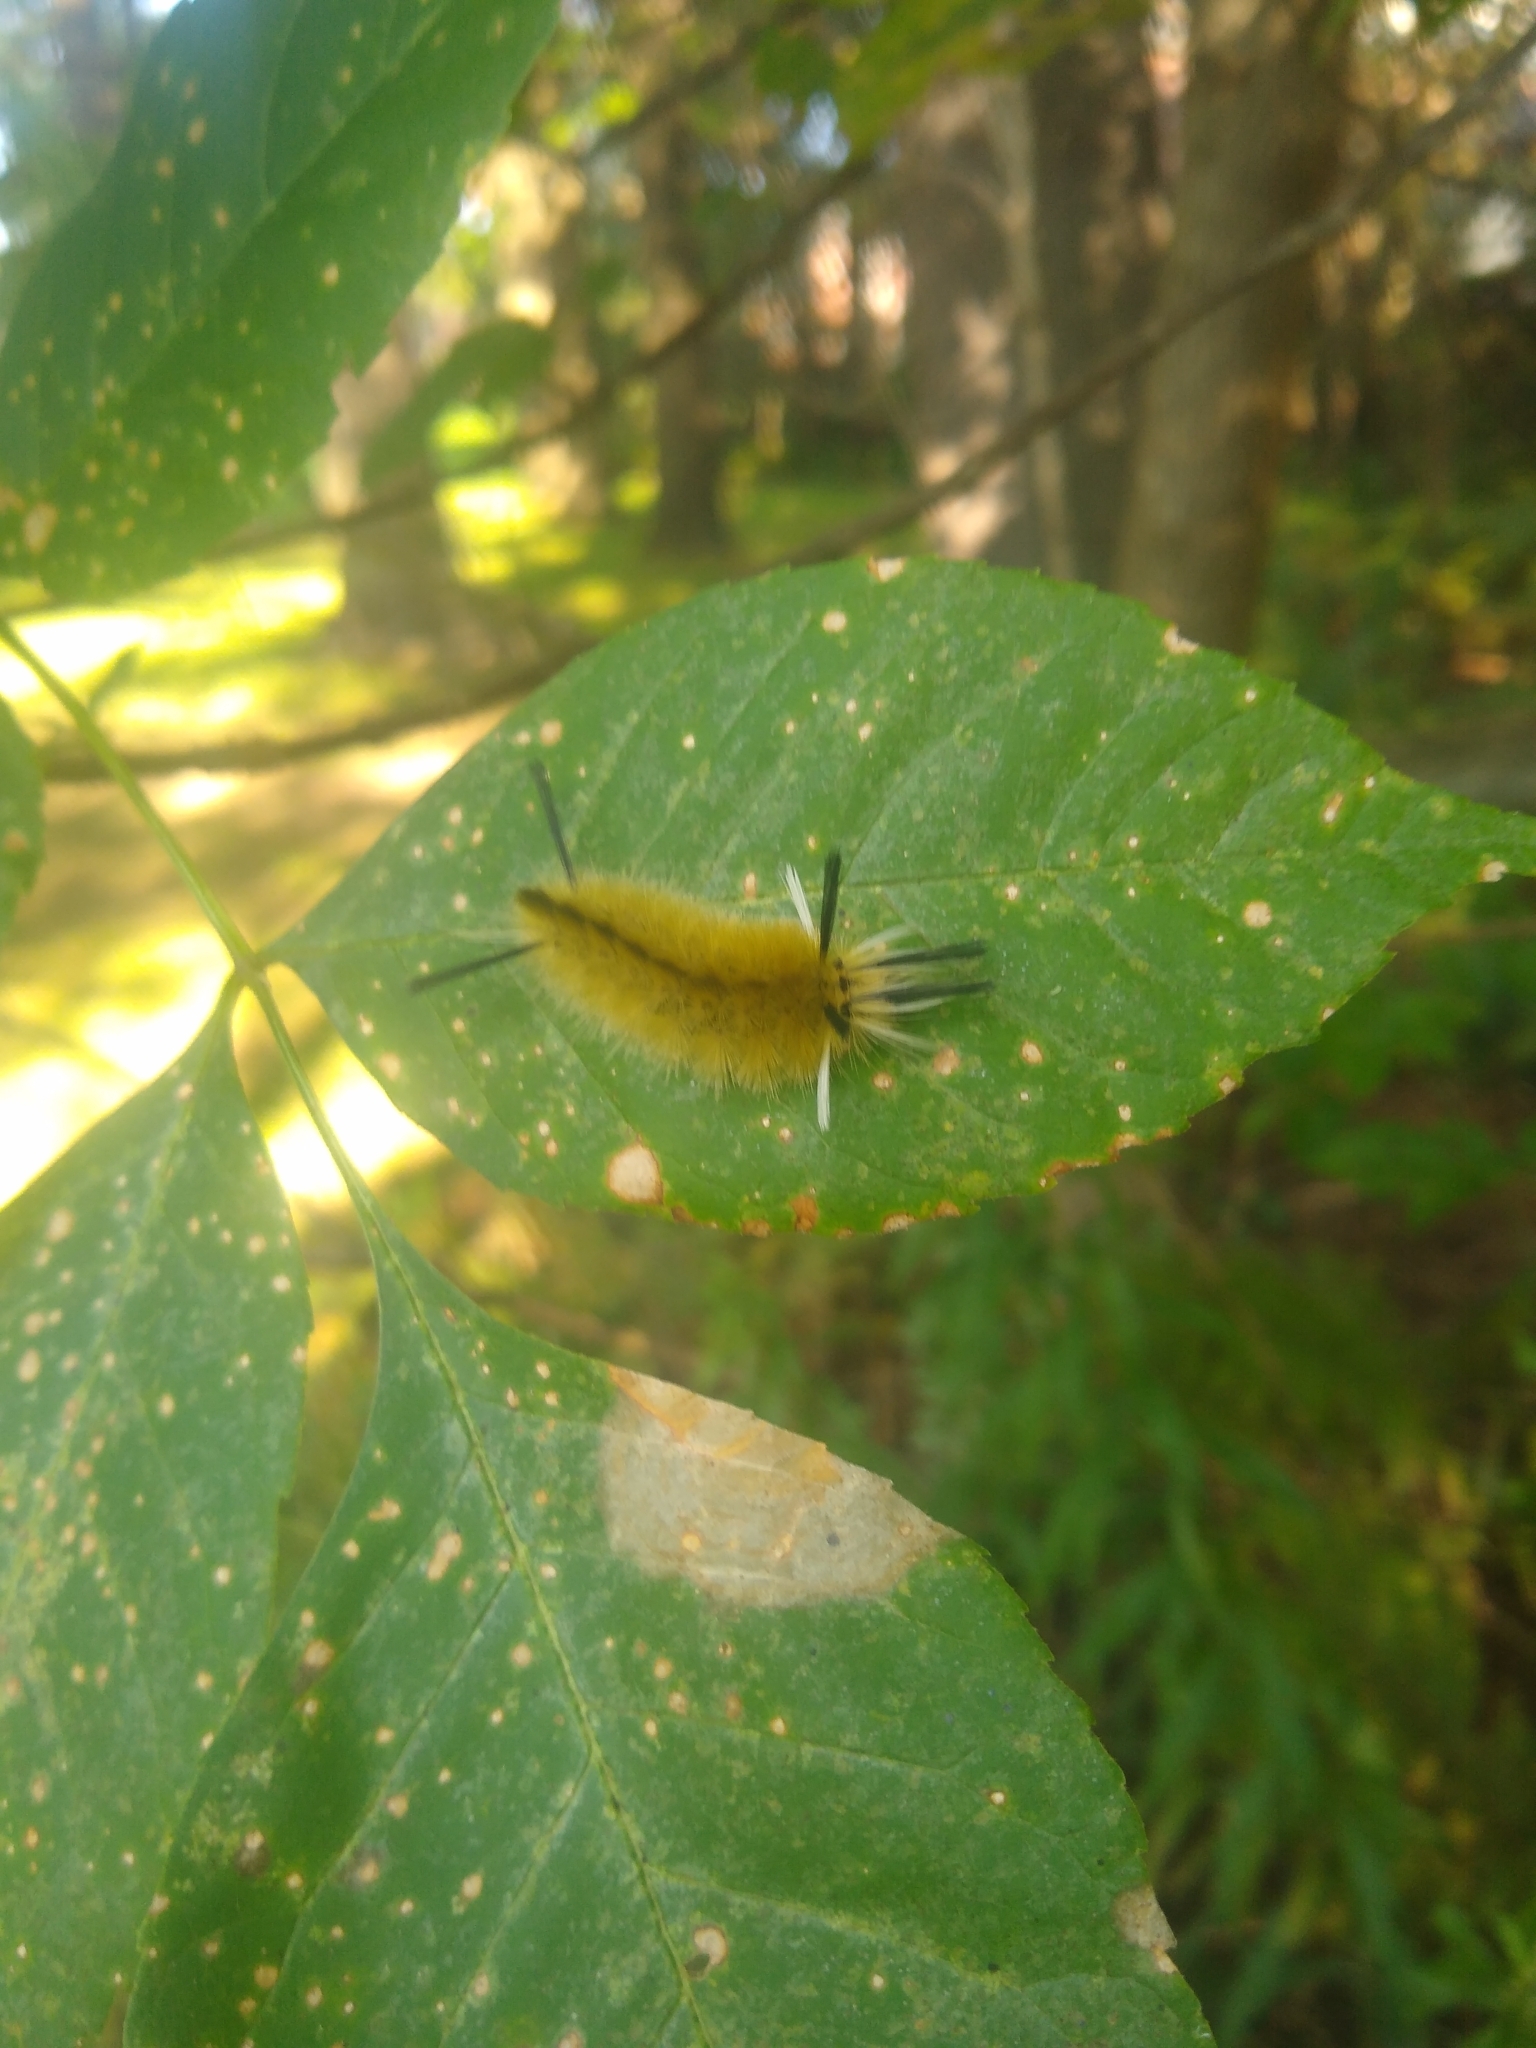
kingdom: Animalia
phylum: Arthropoda
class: Insecta
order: Lepidoptera
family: Erebidae
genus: Halysidota
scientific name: Halysidota tessellaris
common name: Banded tussock moth
